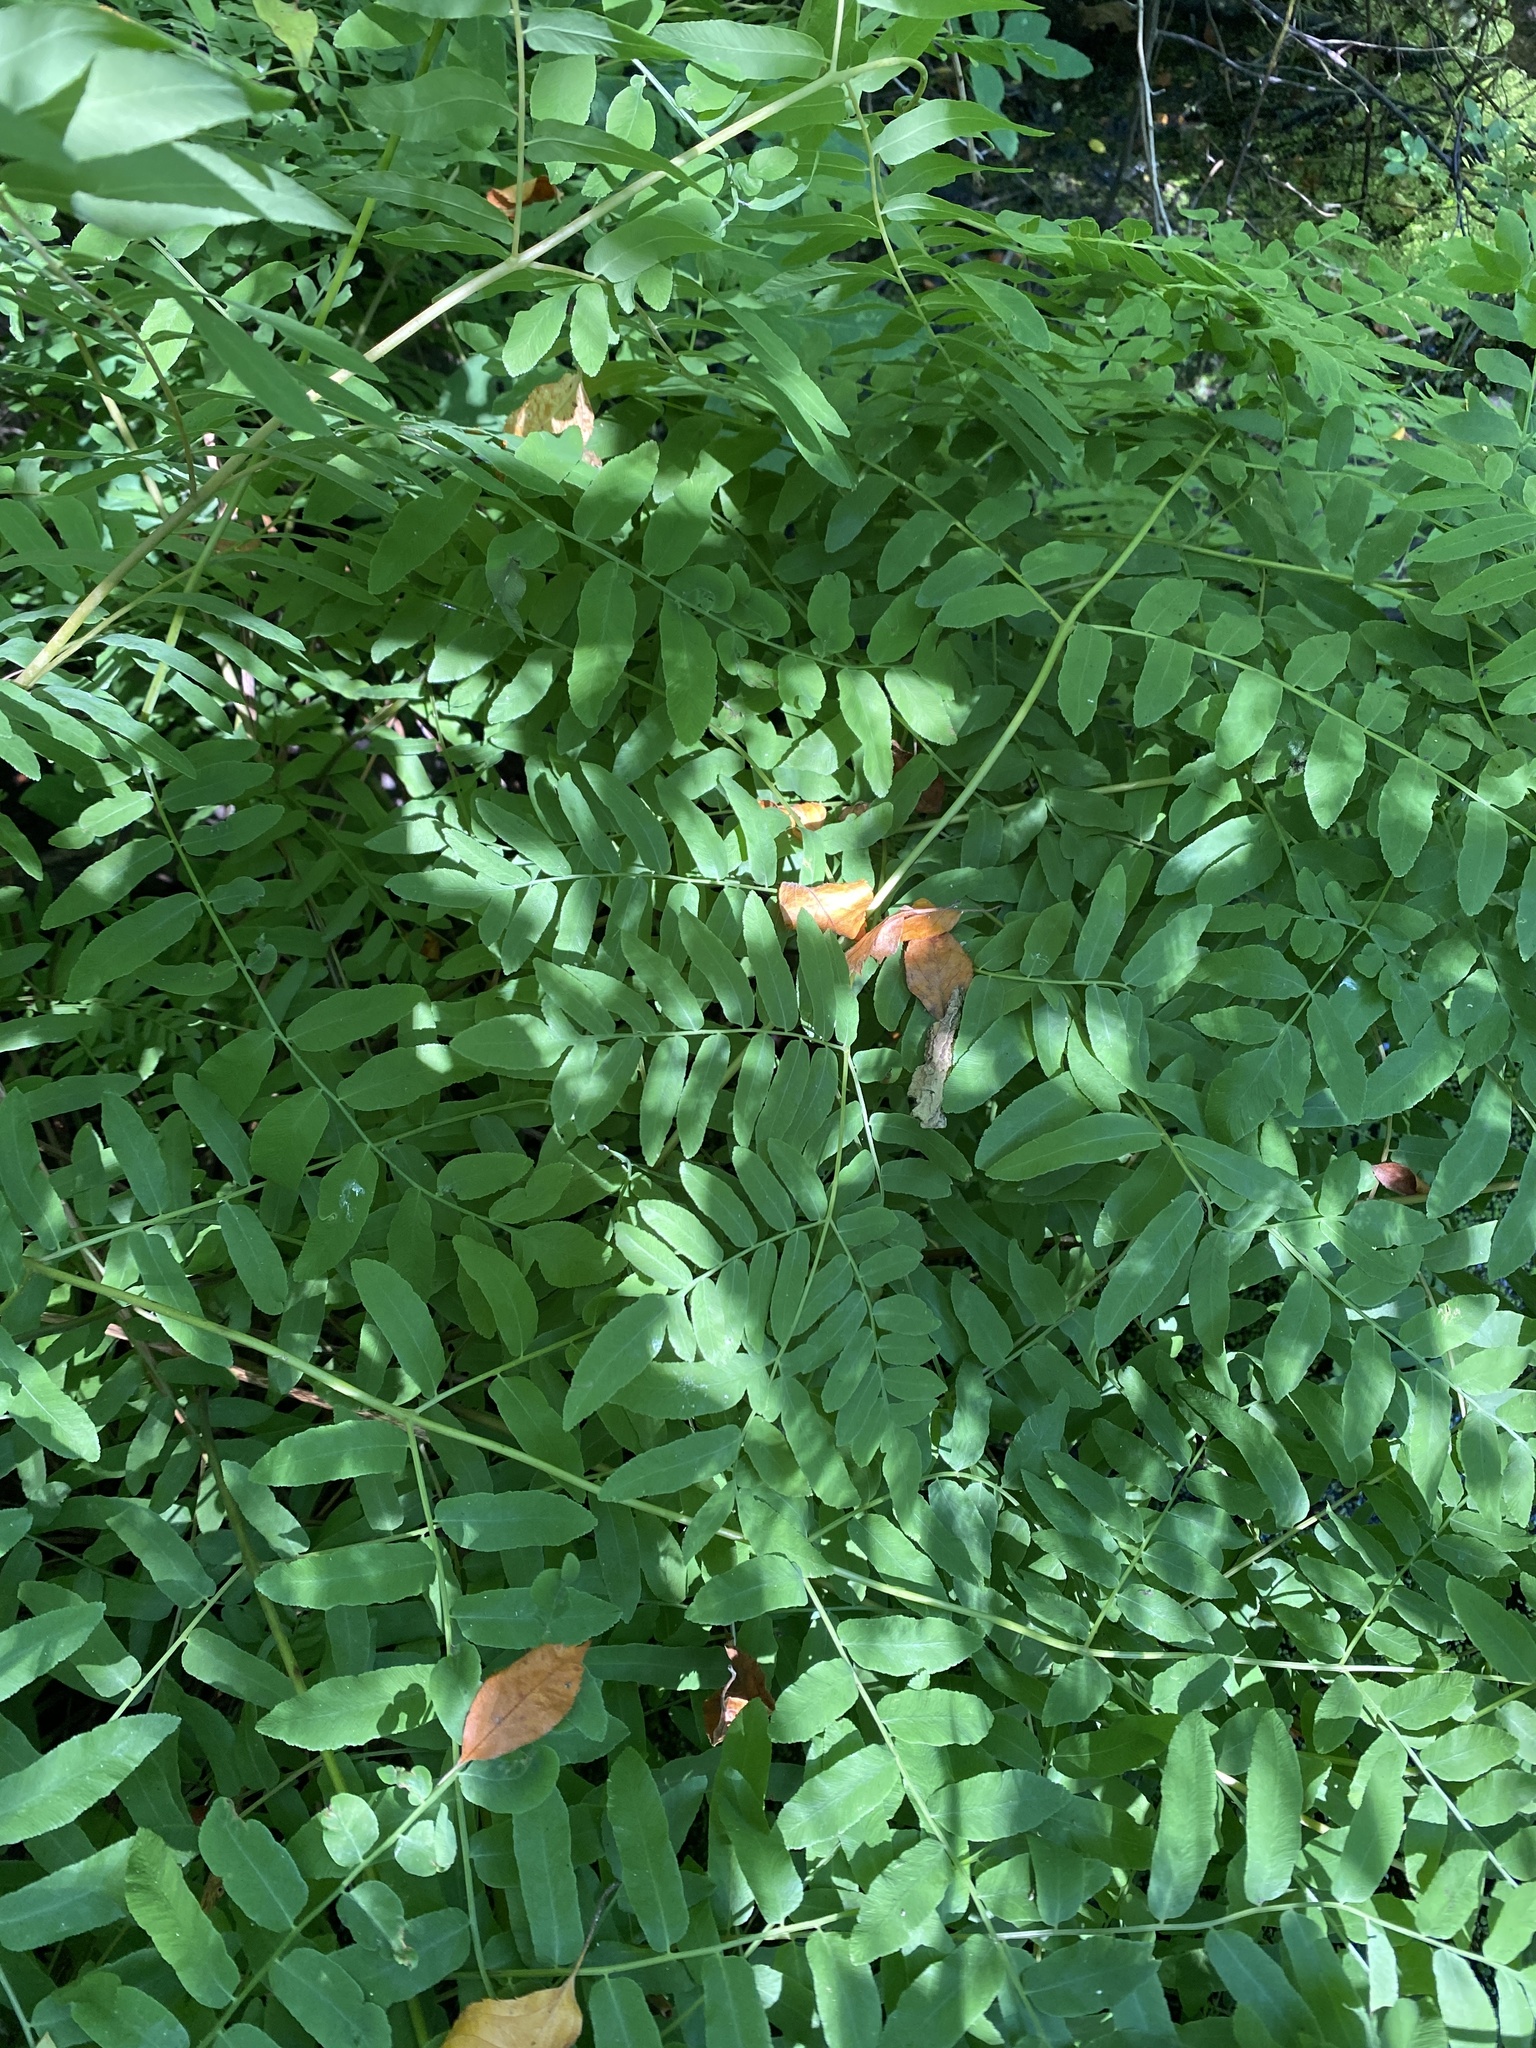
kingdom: Plantae
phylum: Tracheophyta
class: Polypodiopsida
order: Osmundales
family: Osmundaceae
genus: Osmunda
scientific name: Osmunda spectabilis
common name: American royal fern
